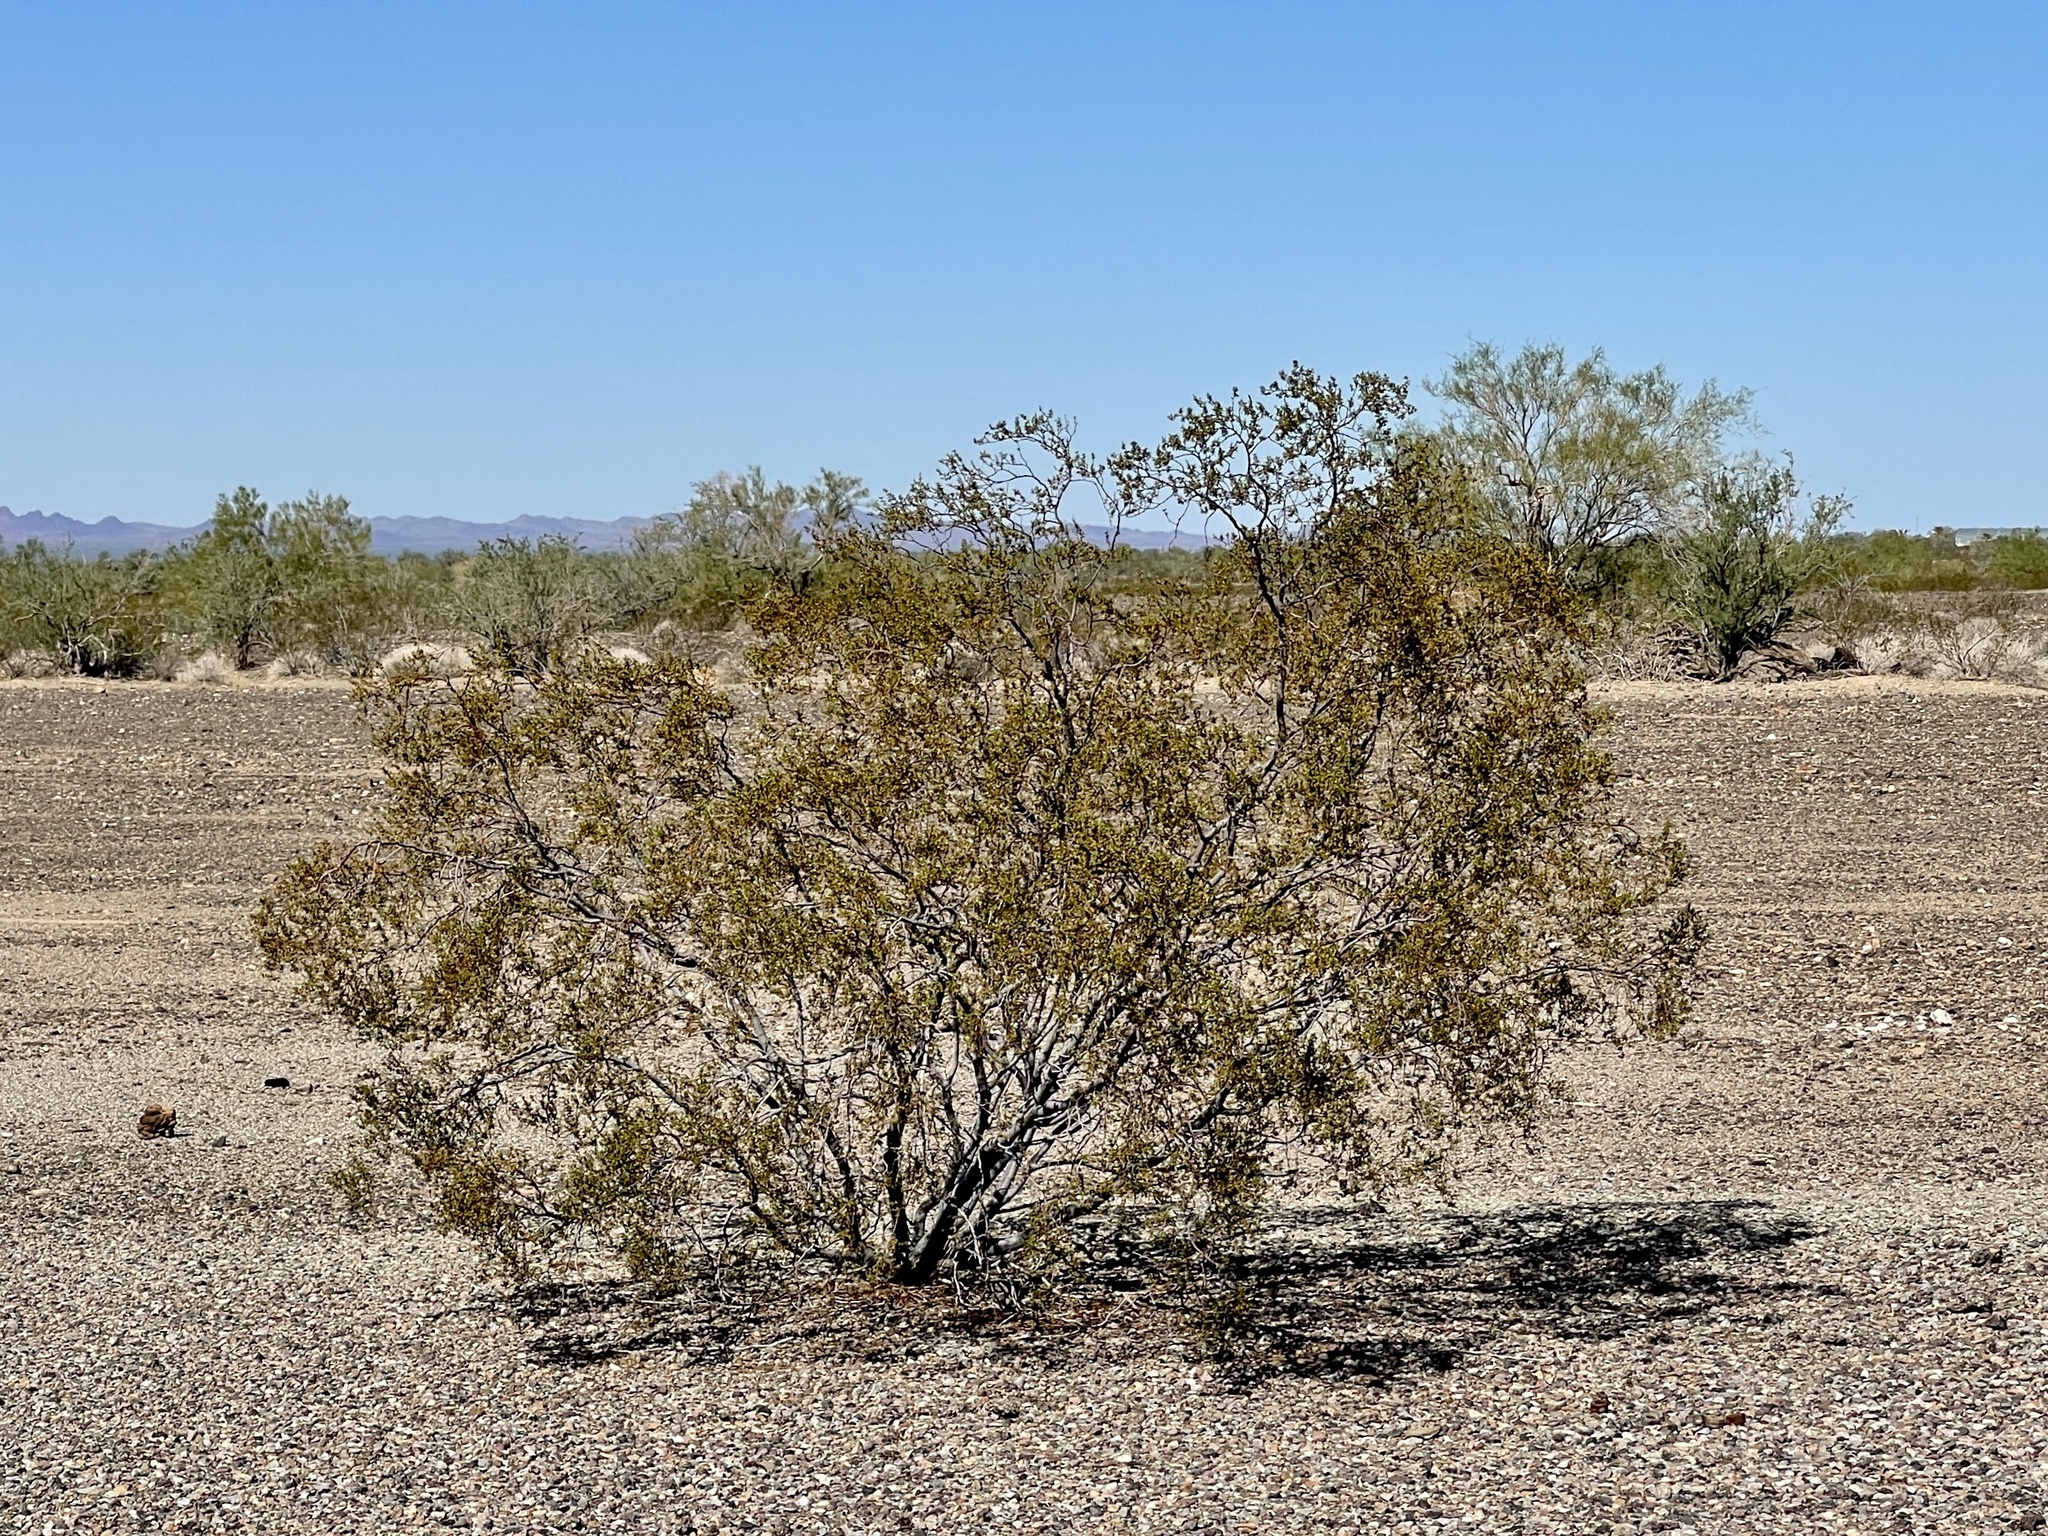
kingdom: Plantae
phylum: Tracheophyta
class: Magnoliopsida
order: Zygophyllales
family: Zygophyllaceae
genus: Larrea
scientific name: Larrea tridentata
